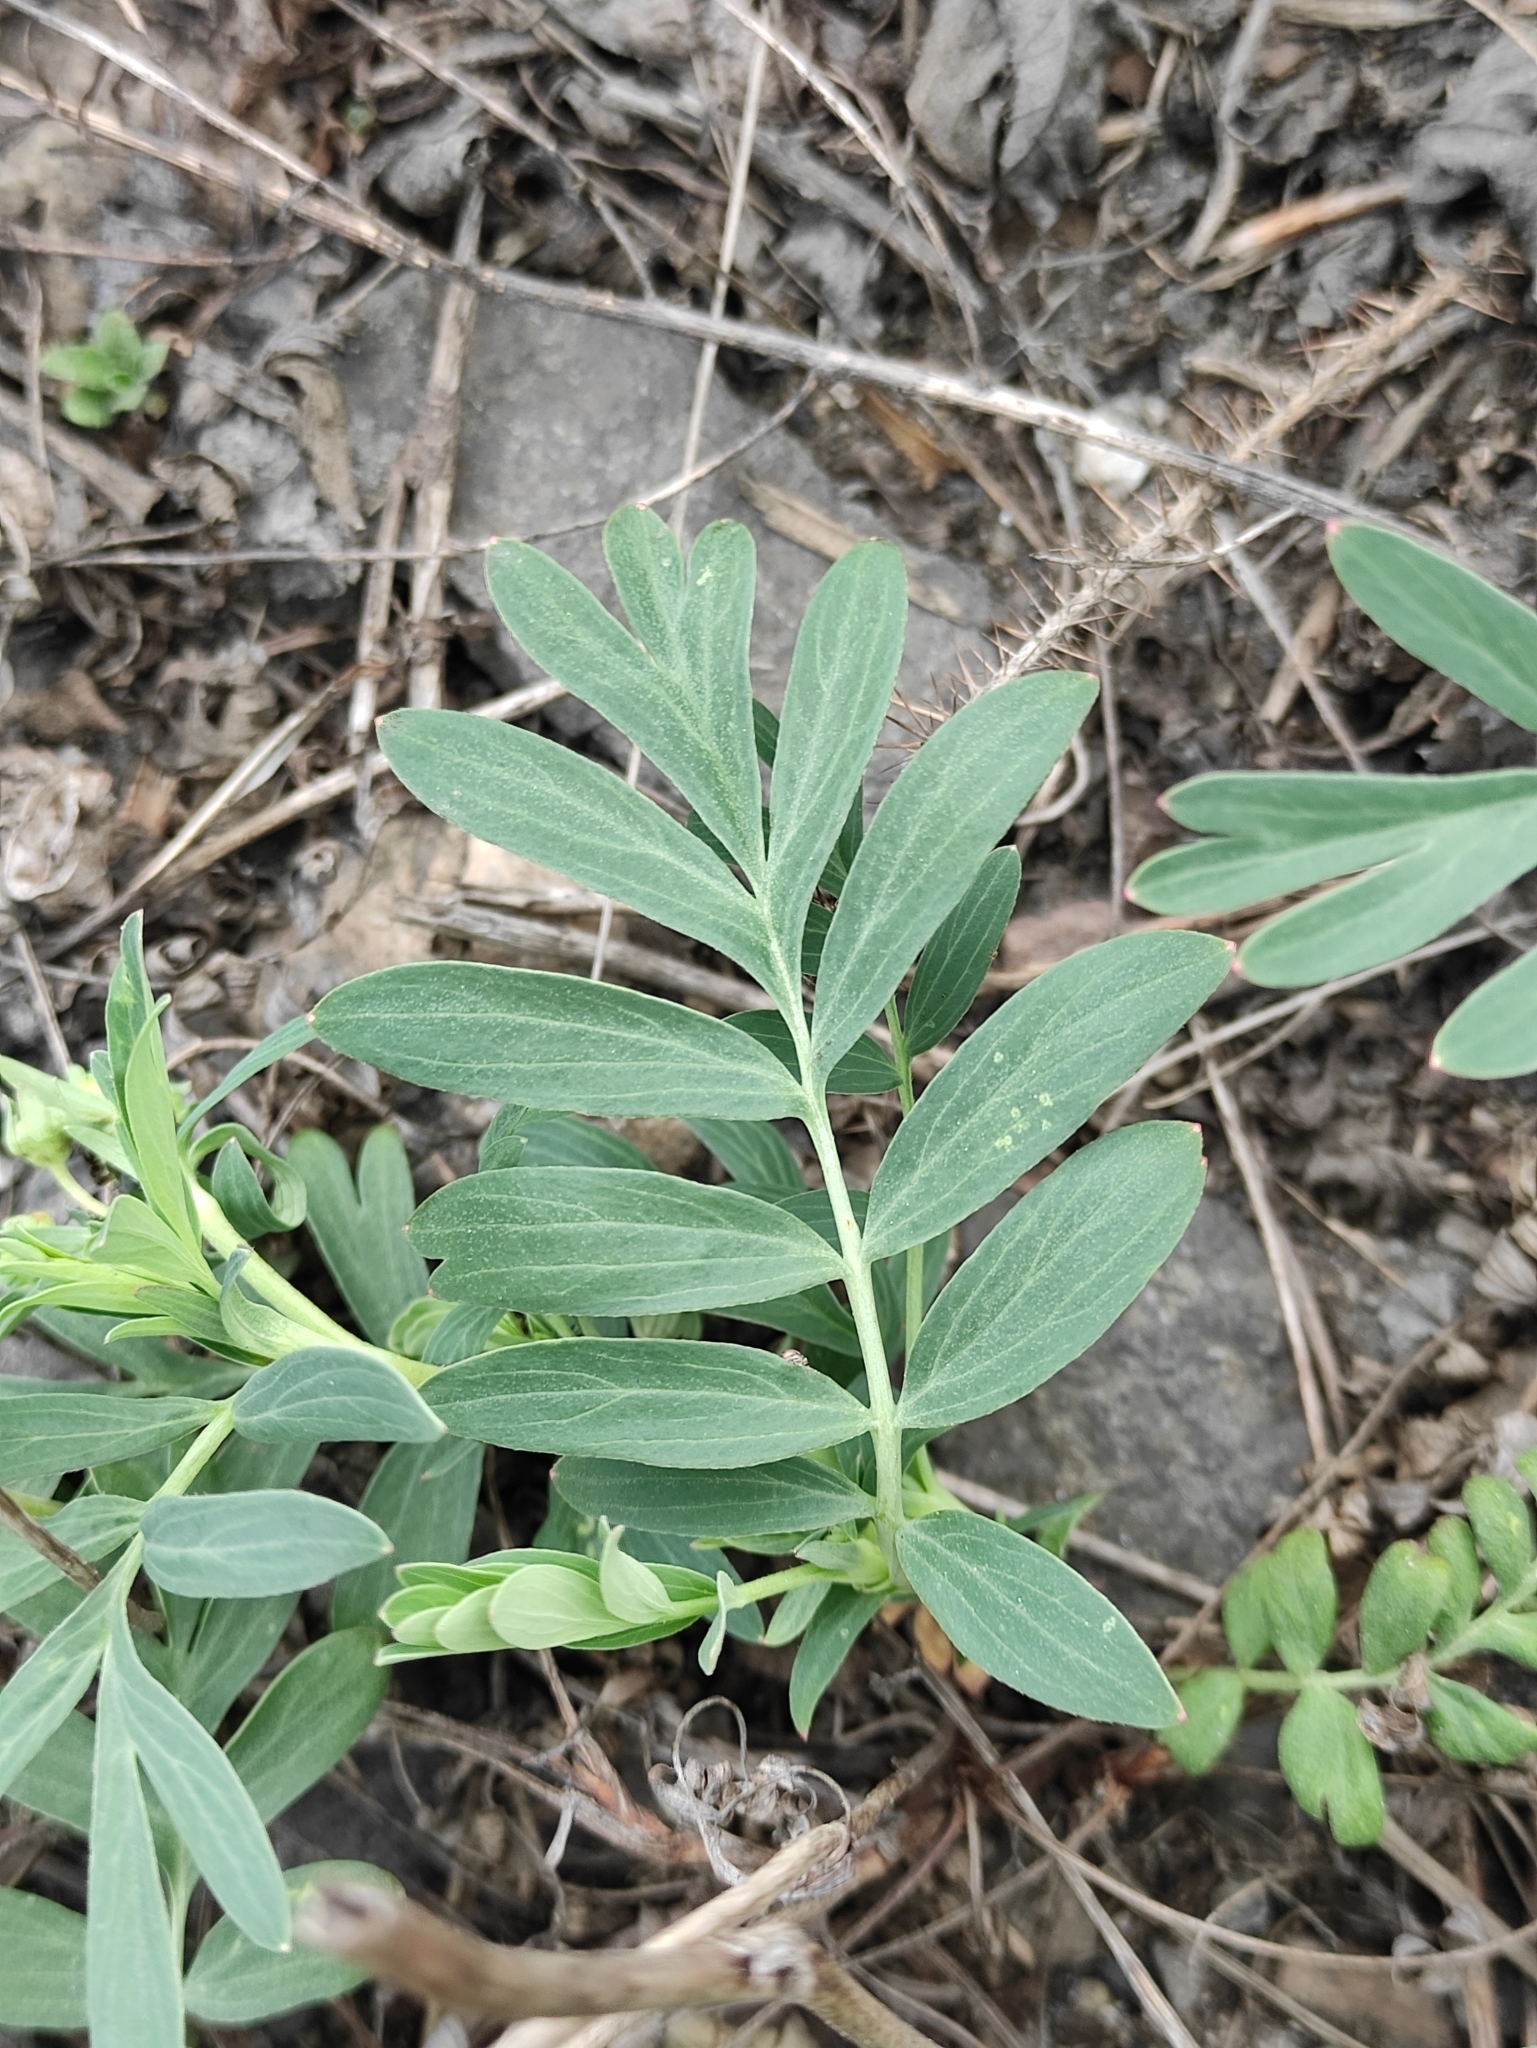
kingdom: Plantae
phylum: Tracheophyta
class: Magnoliopsida
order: Rosales
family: Rosaceae
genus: Sibbaldianthe
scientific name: Sibbaldianthe bifurca
